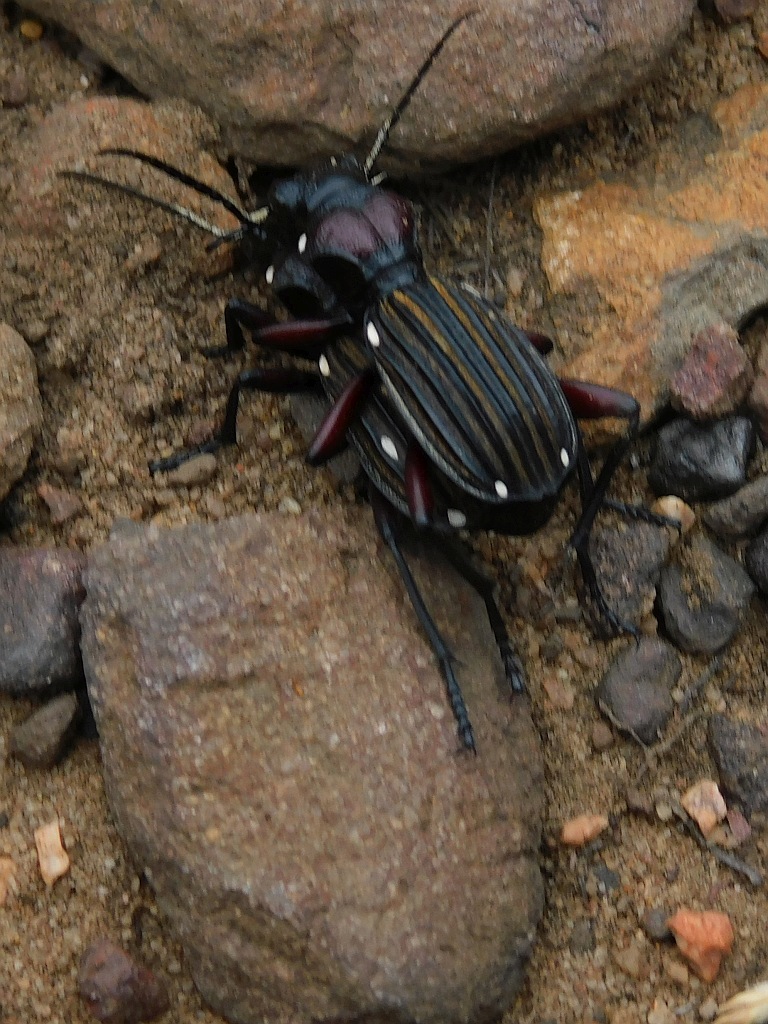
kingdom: Animalia
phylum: Arthropoda
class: Insecta
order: Coleoptera
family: Carabidae
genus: Anthia
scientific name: Anthia decemguttata
